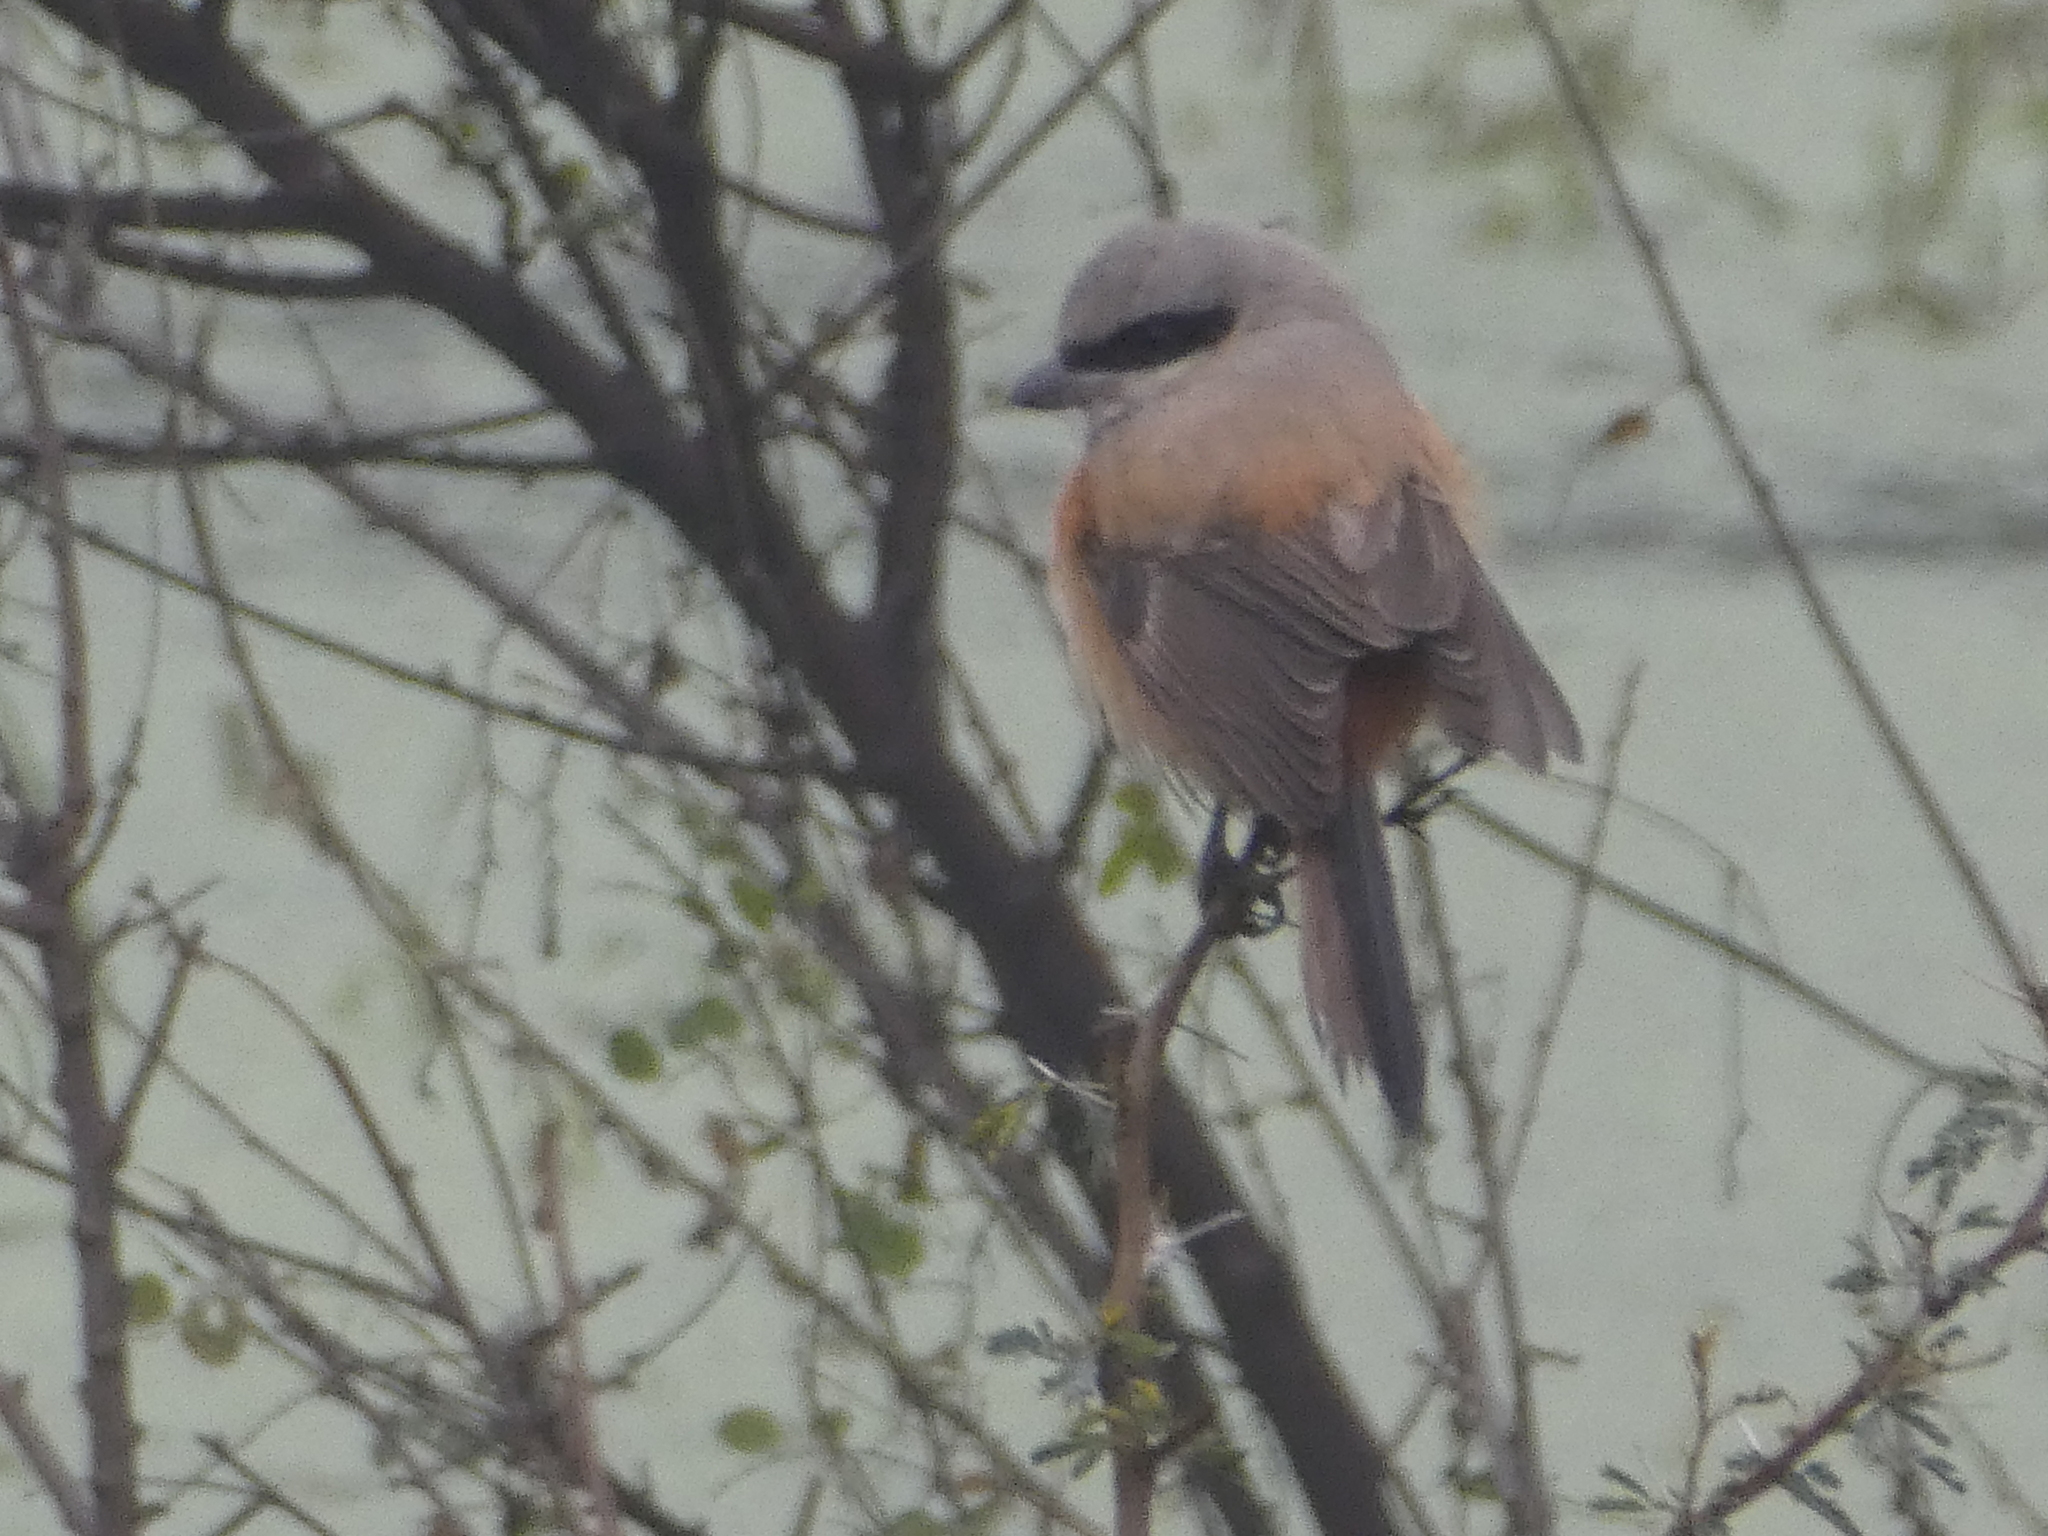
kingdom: Animalia
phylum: Chordata
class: Aves
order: Passeriformes
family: Laniidae
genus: Lanius
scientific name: Lanius schach
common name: Long-tailed shrike
